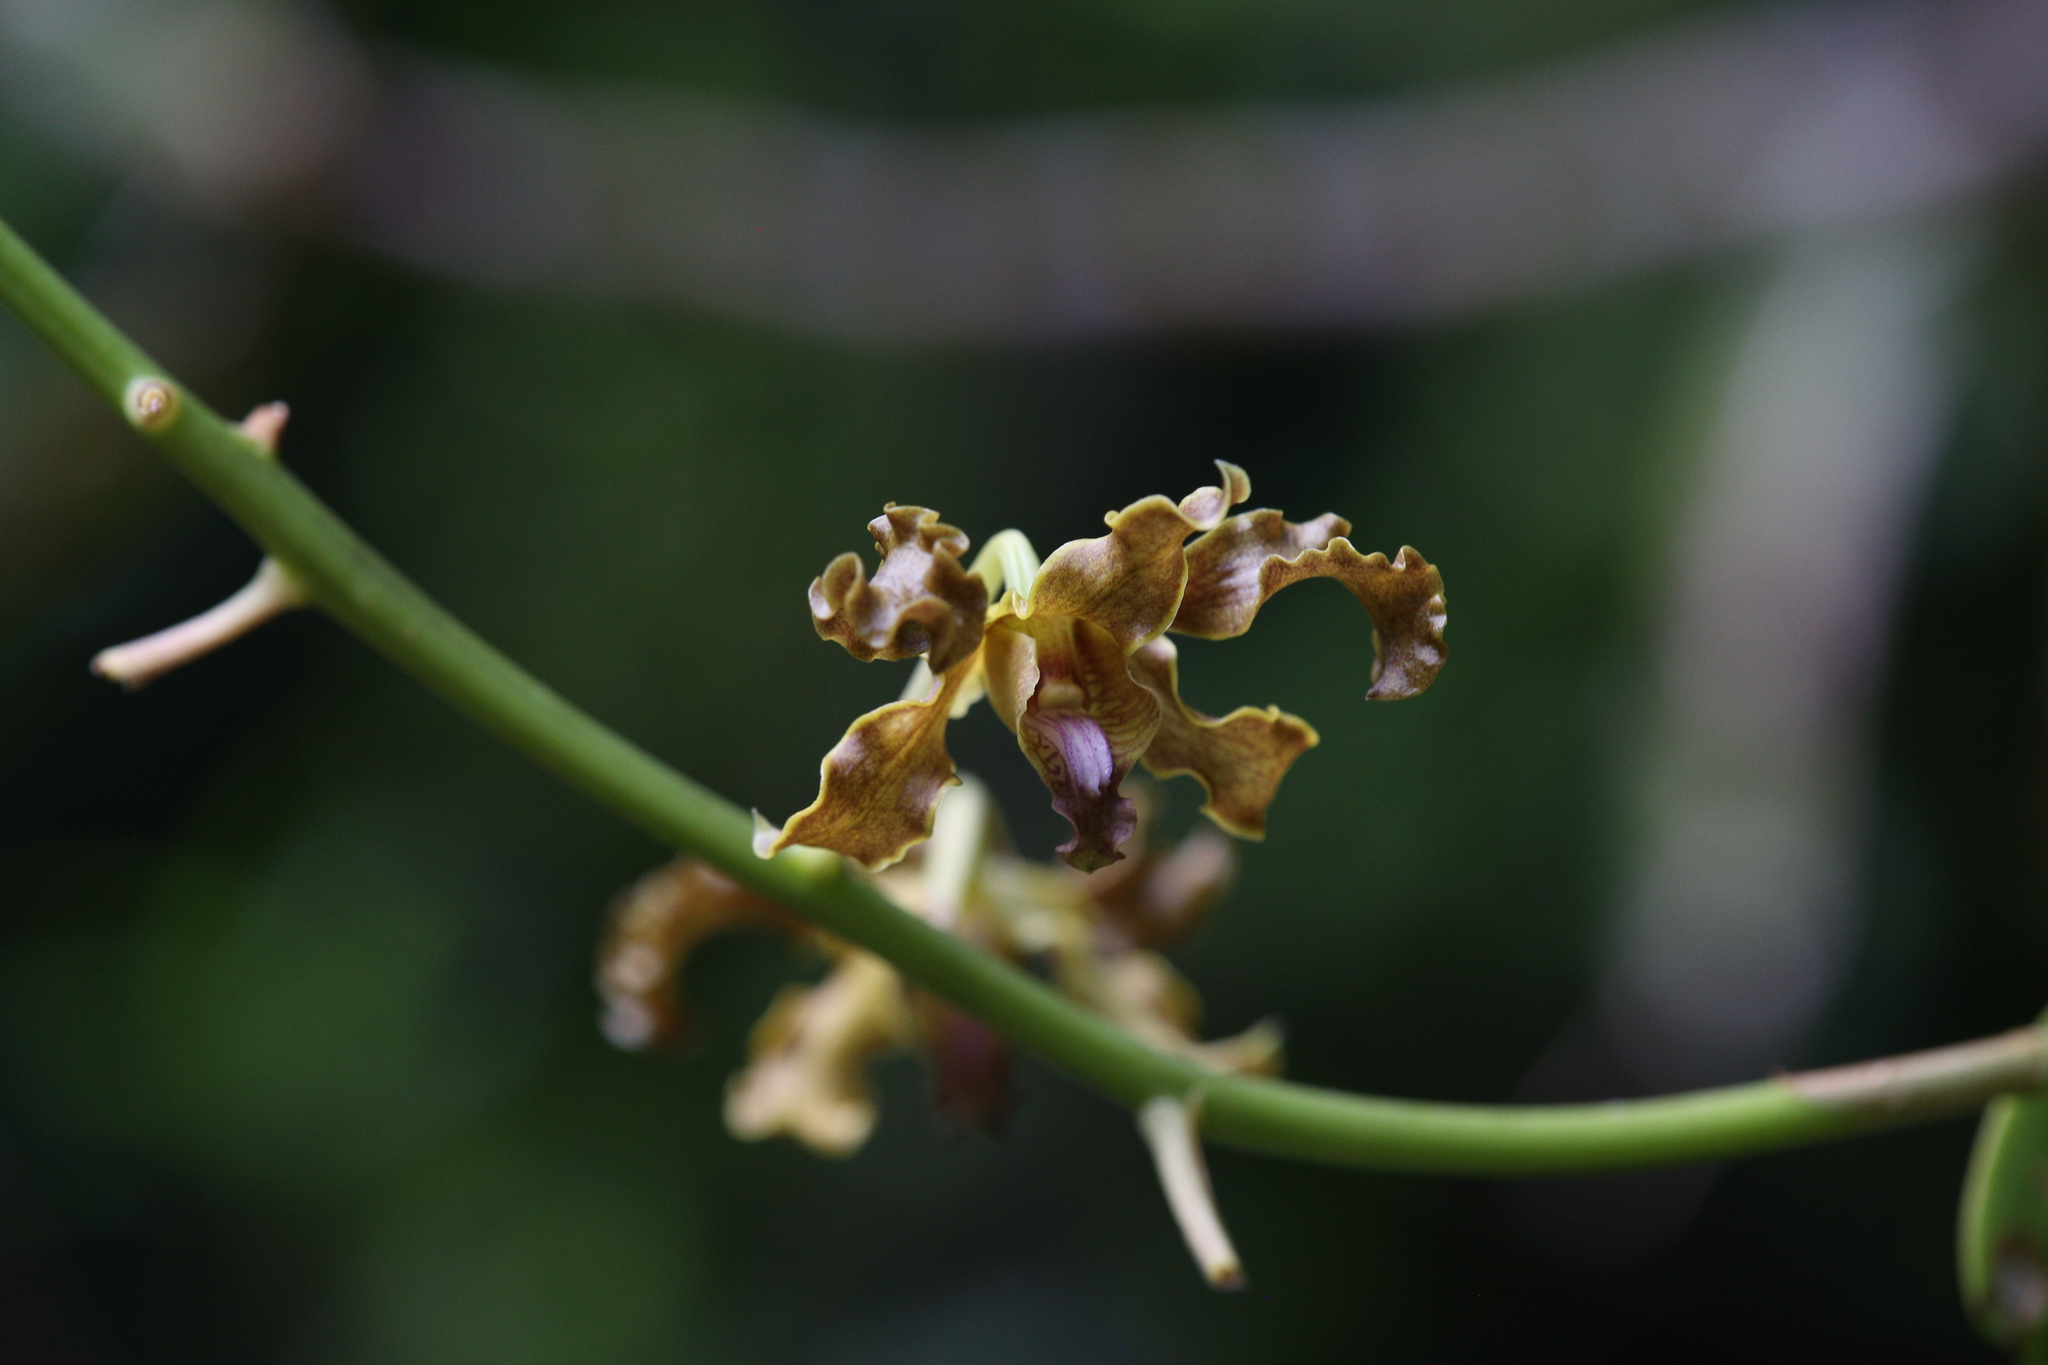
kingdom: Plantae
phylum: Tracheophyta
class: Liliopsida
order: Asparagales
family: Orchidaceae
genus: Dendrobium
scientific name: Dendrobium discolor
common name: Golden antler orchid
